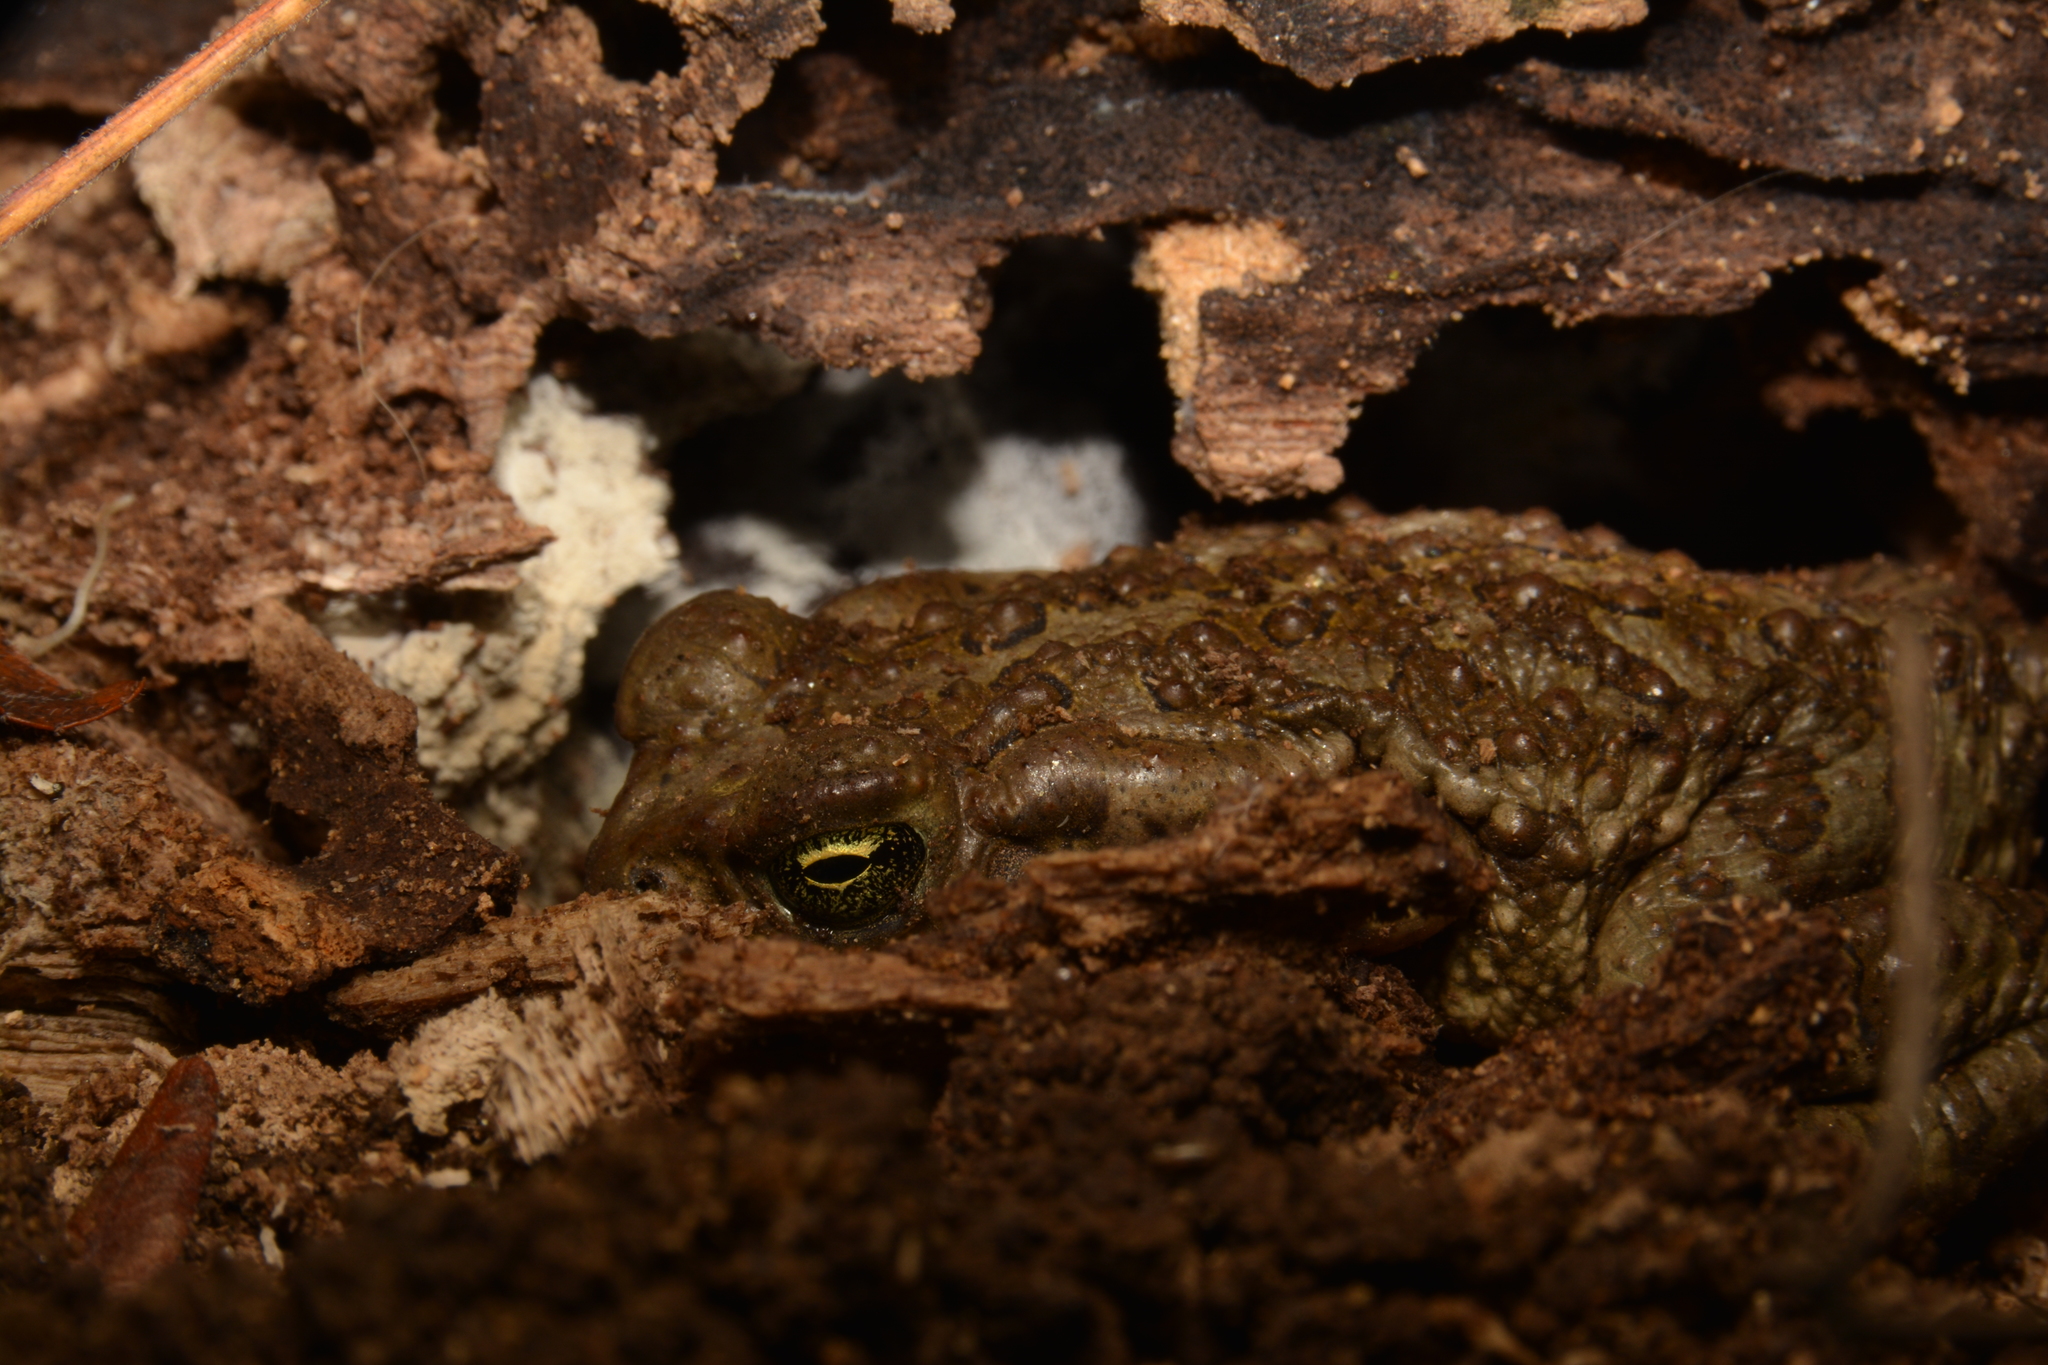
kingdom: Animalia
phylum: Chordata
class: Amphibia
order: Anura
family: Bufonidae
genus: Rhinella
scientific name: Rhinella arenarum
